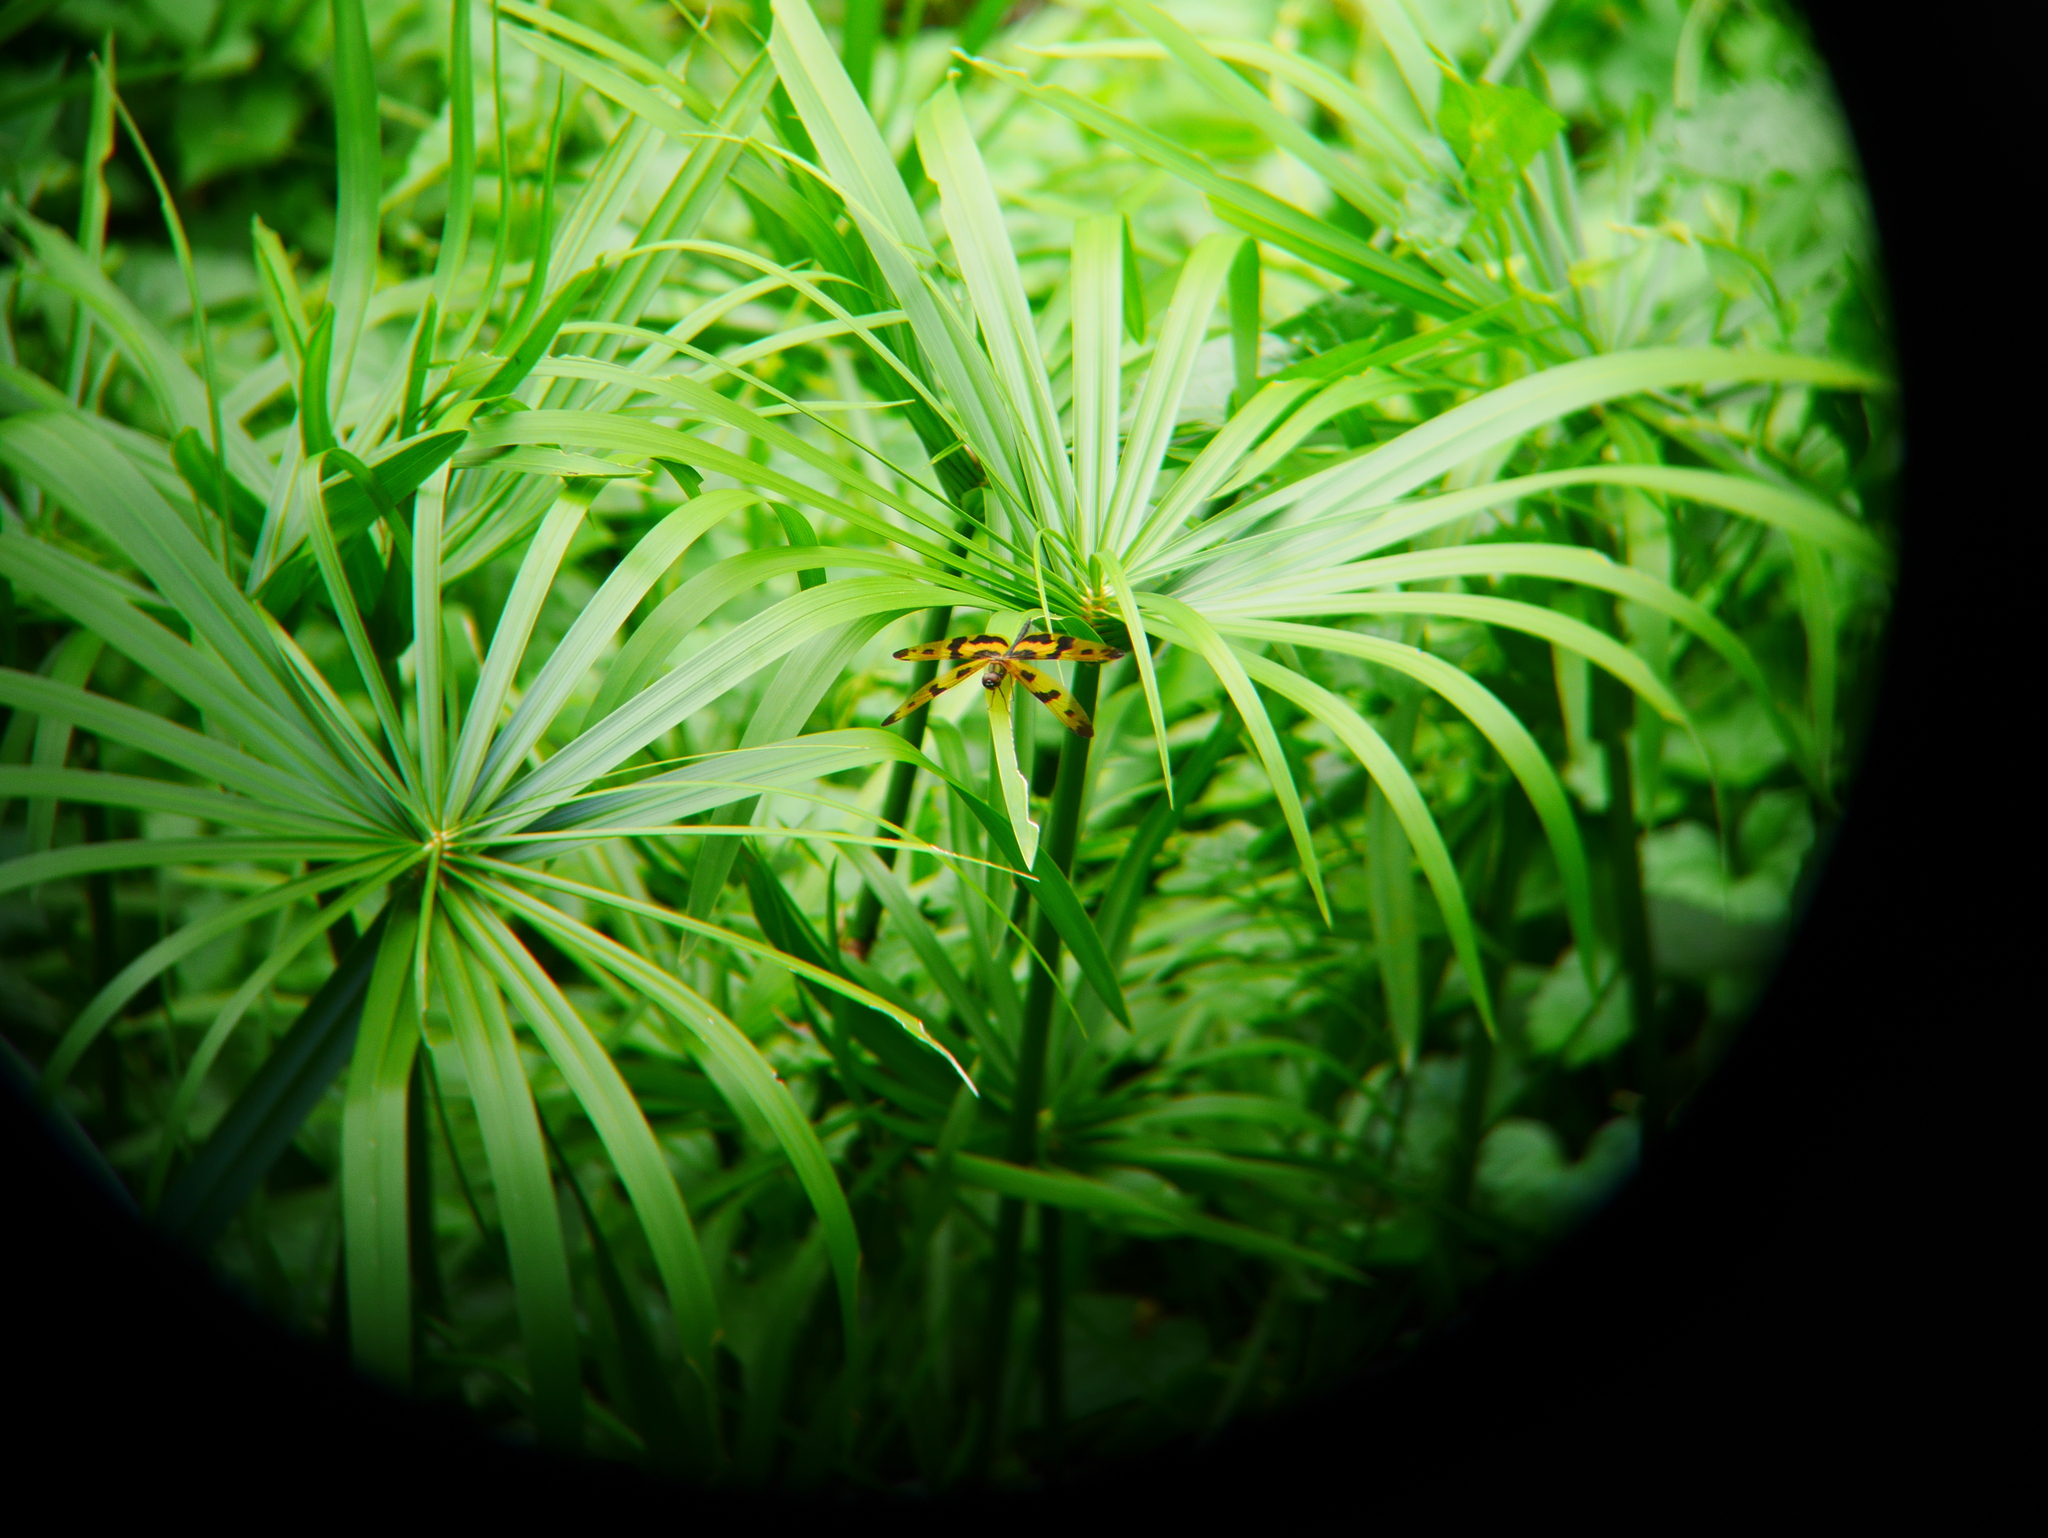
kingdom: Animalia
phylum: Arthropoda
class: Insecta
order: Odonata
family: Libellulidae
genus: Rhyothemis
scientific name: Rhyothemis variegata
